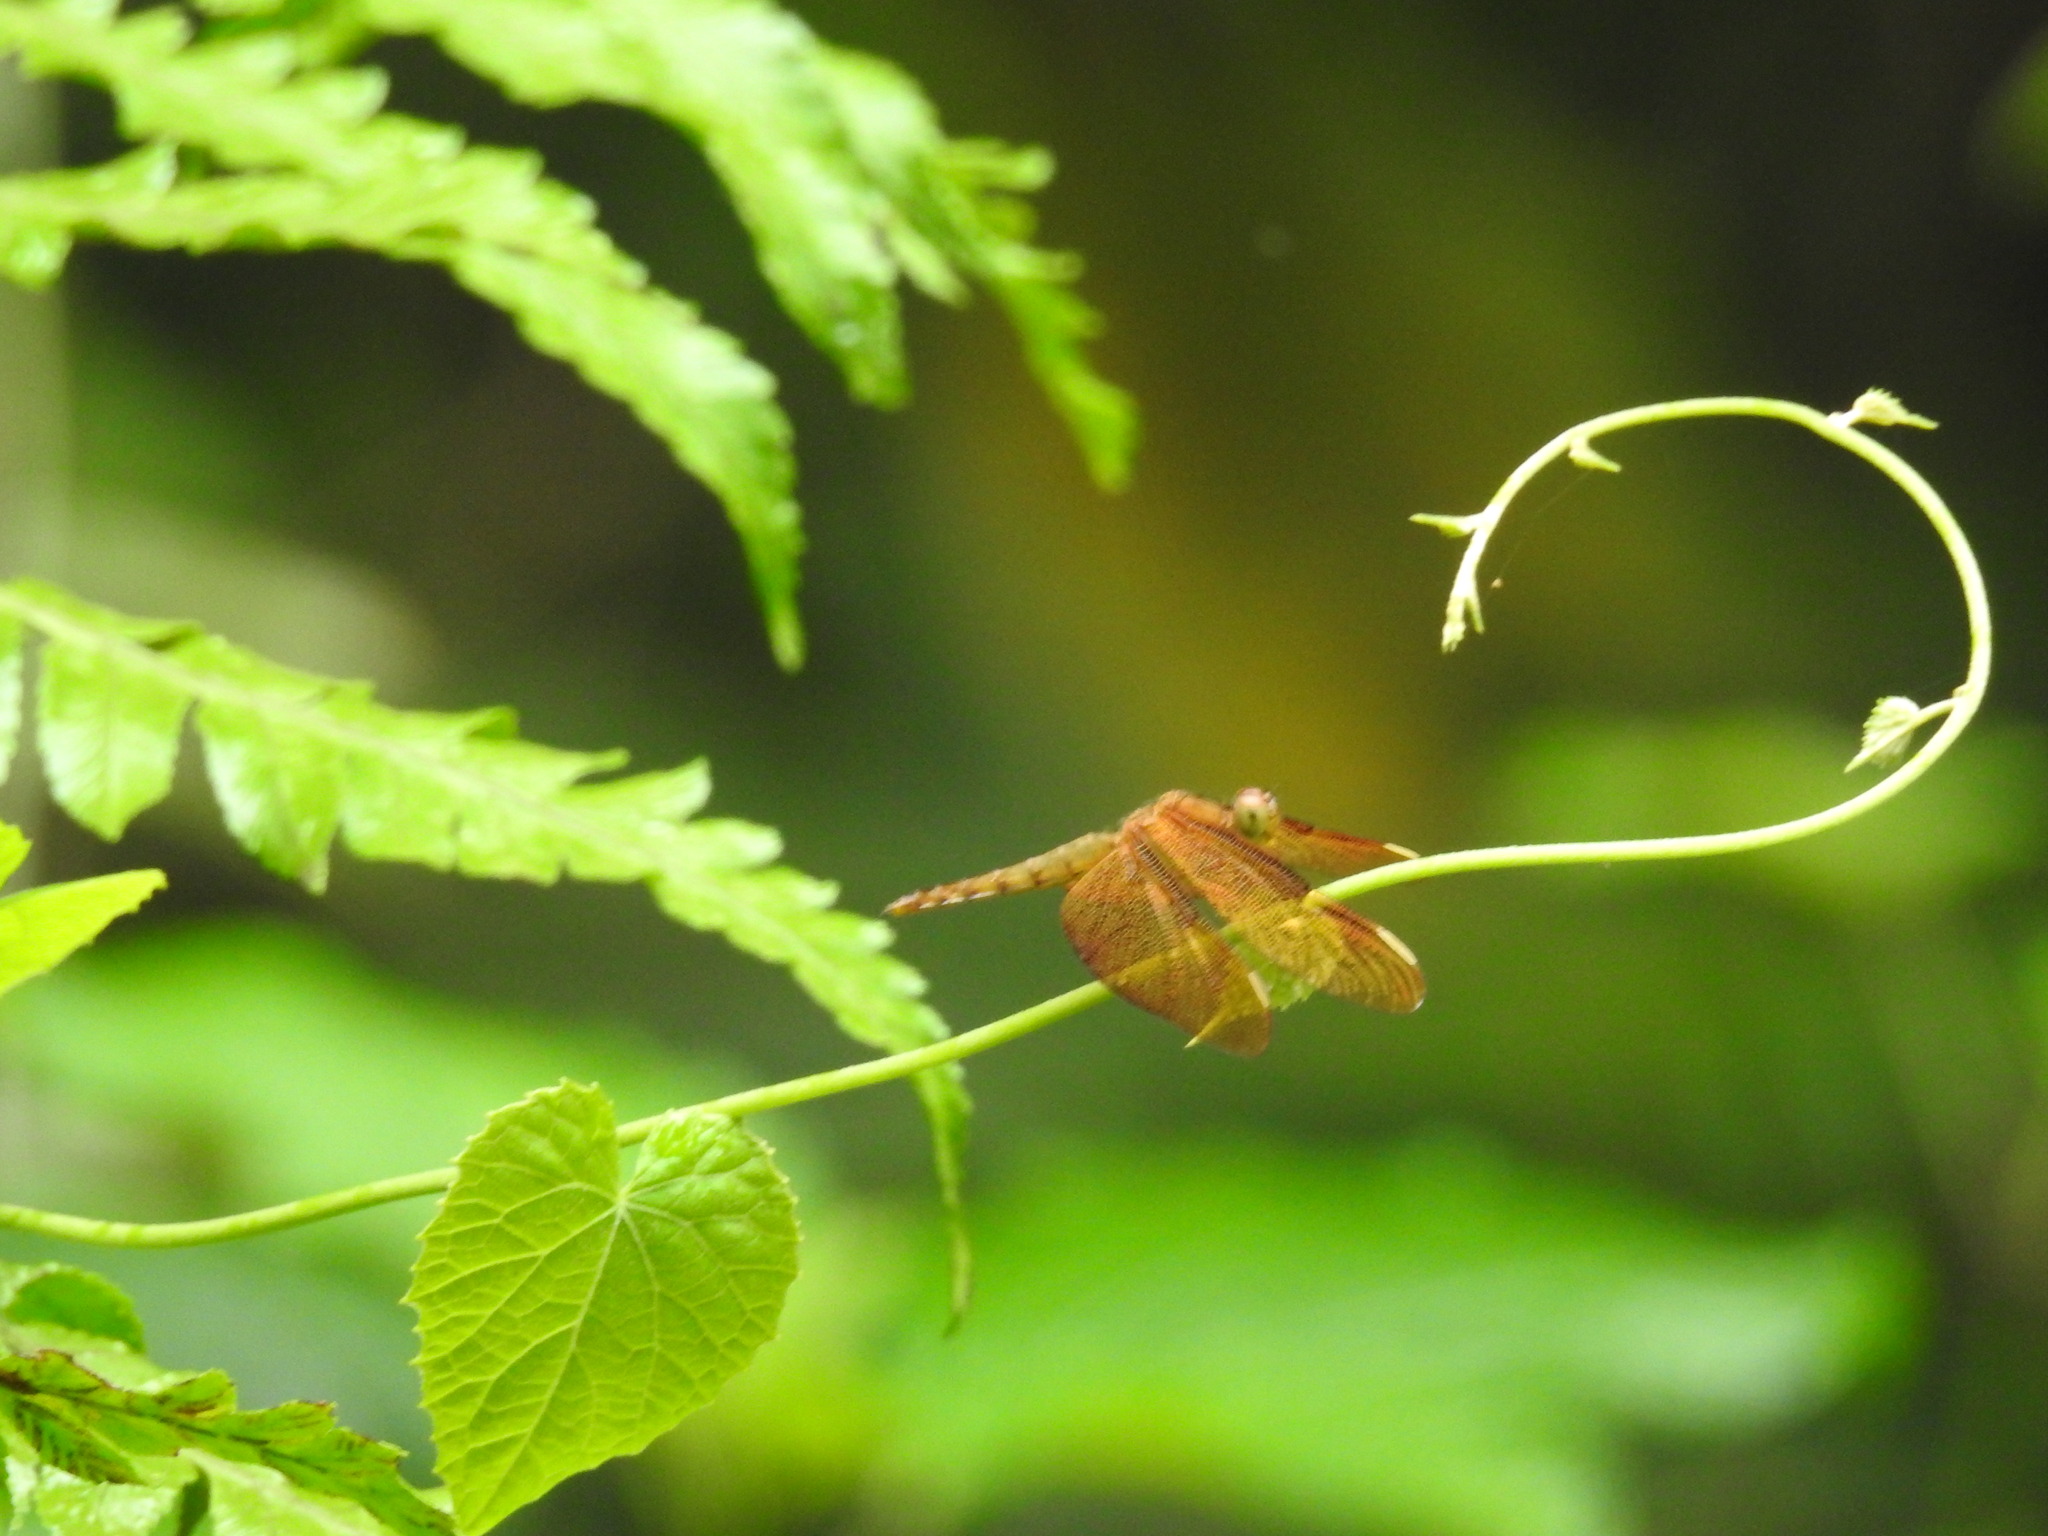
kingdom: Animalia
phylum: Arthropoda
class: Insecta
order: Odonata
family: Libellulidae
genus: Neurothemis
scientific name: Neurothemis fulvia
